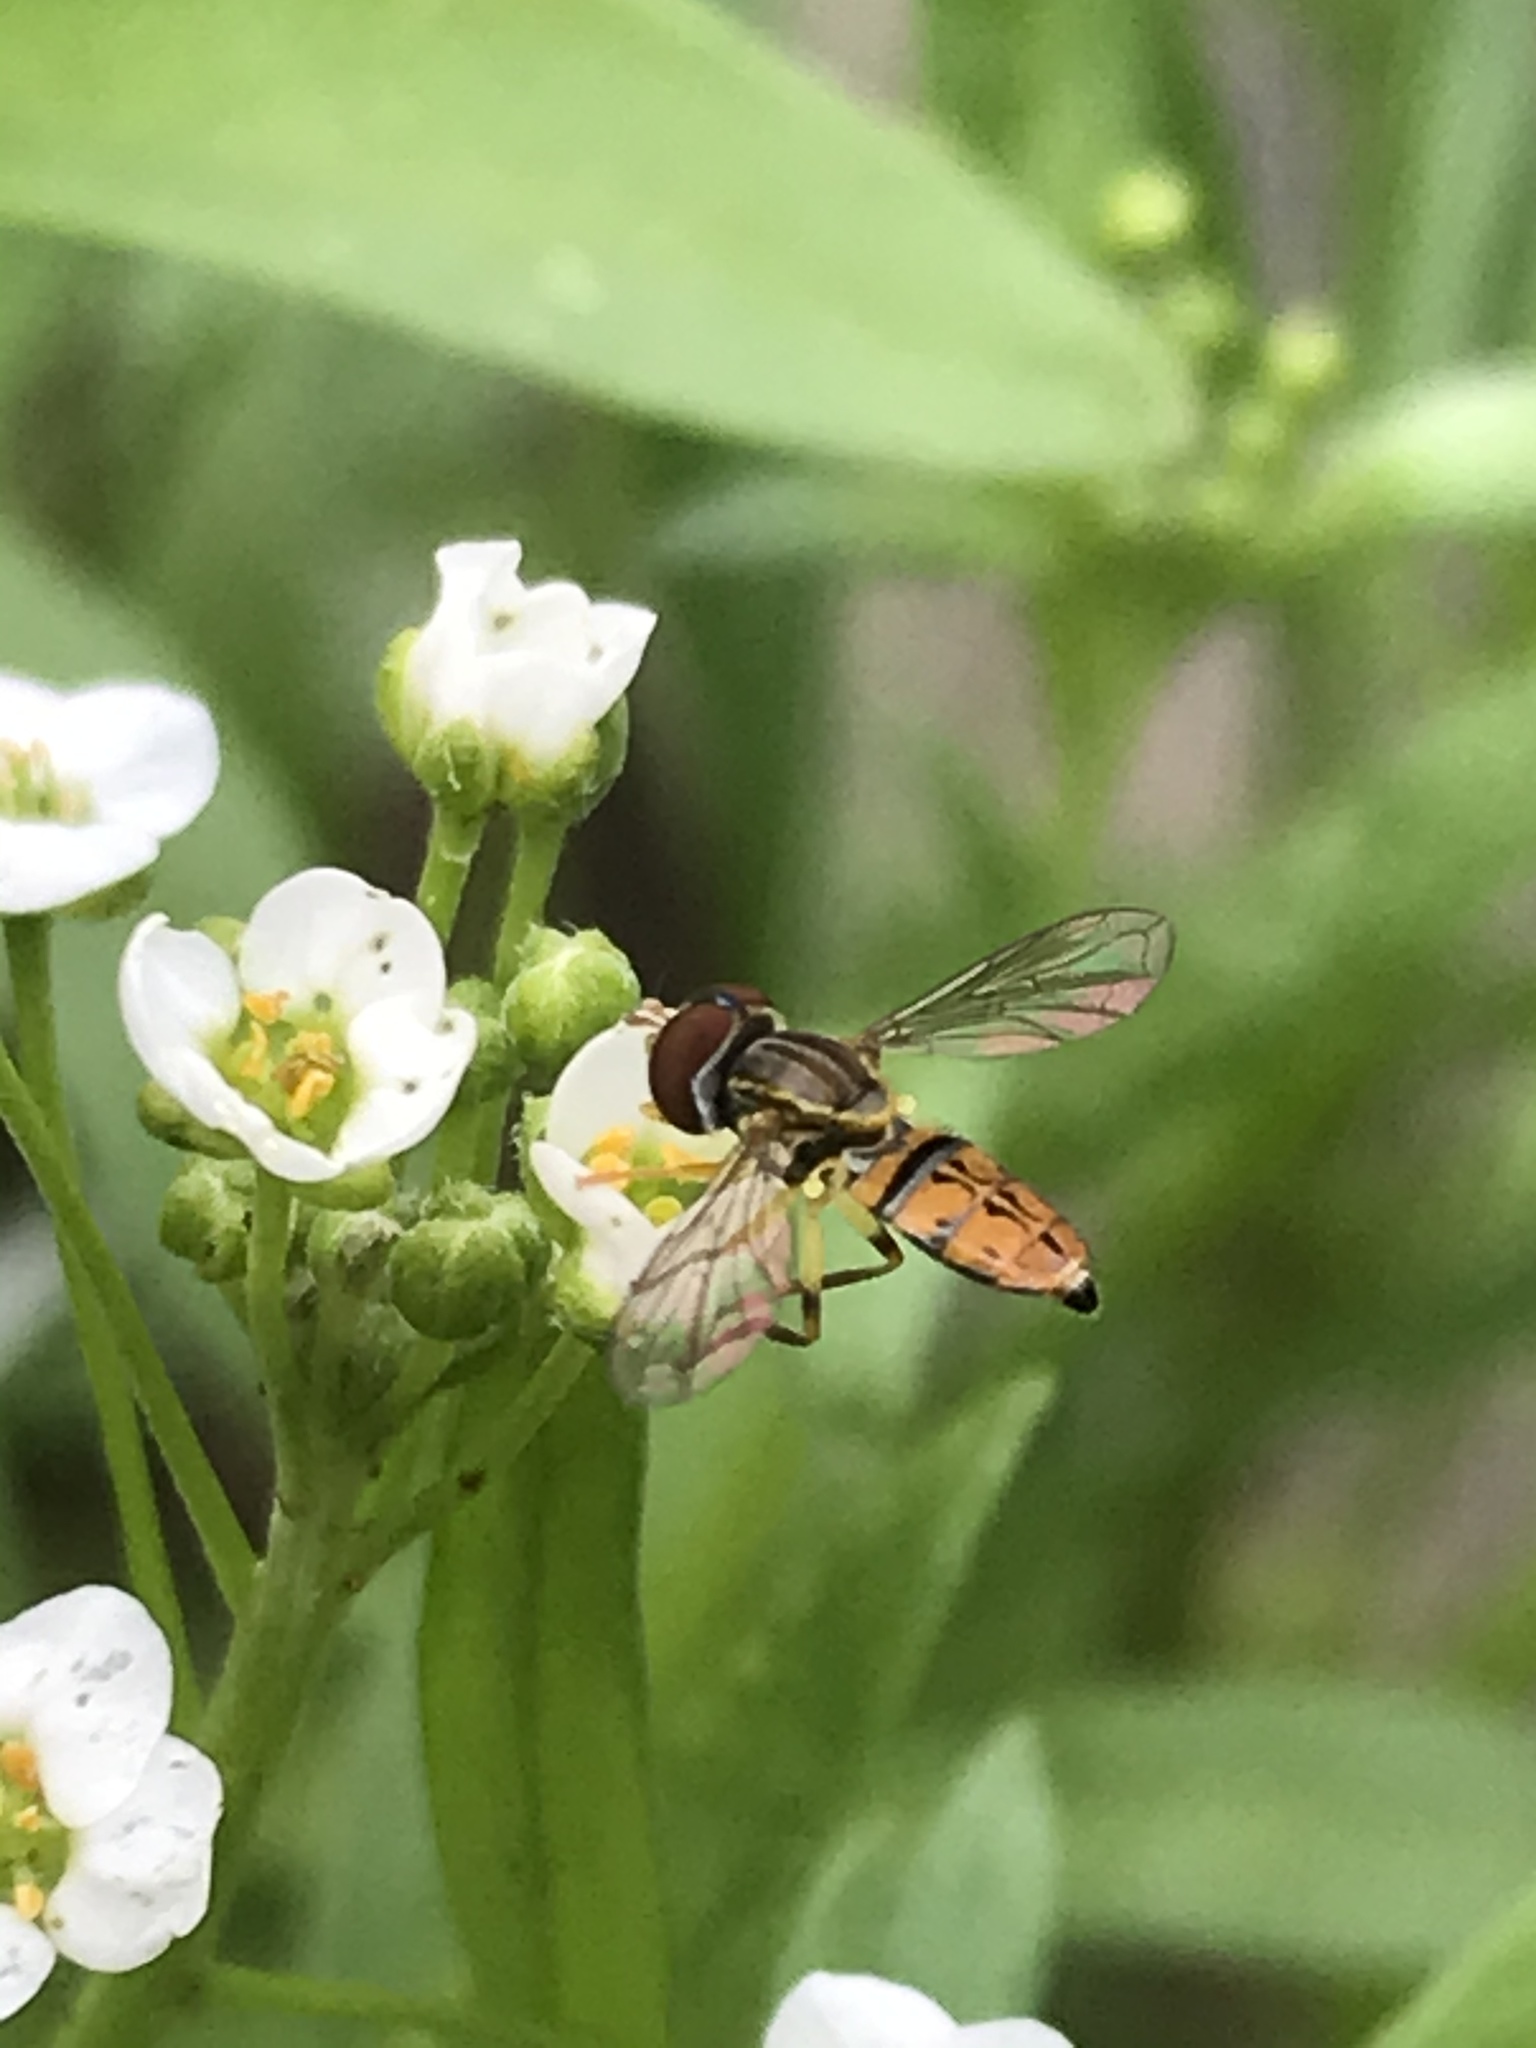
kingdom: Animalia
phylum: Arthropoda
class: Insecta
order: Diptera
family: Syrphidae
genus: Toxomerus
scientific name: Toxomerus boscii
